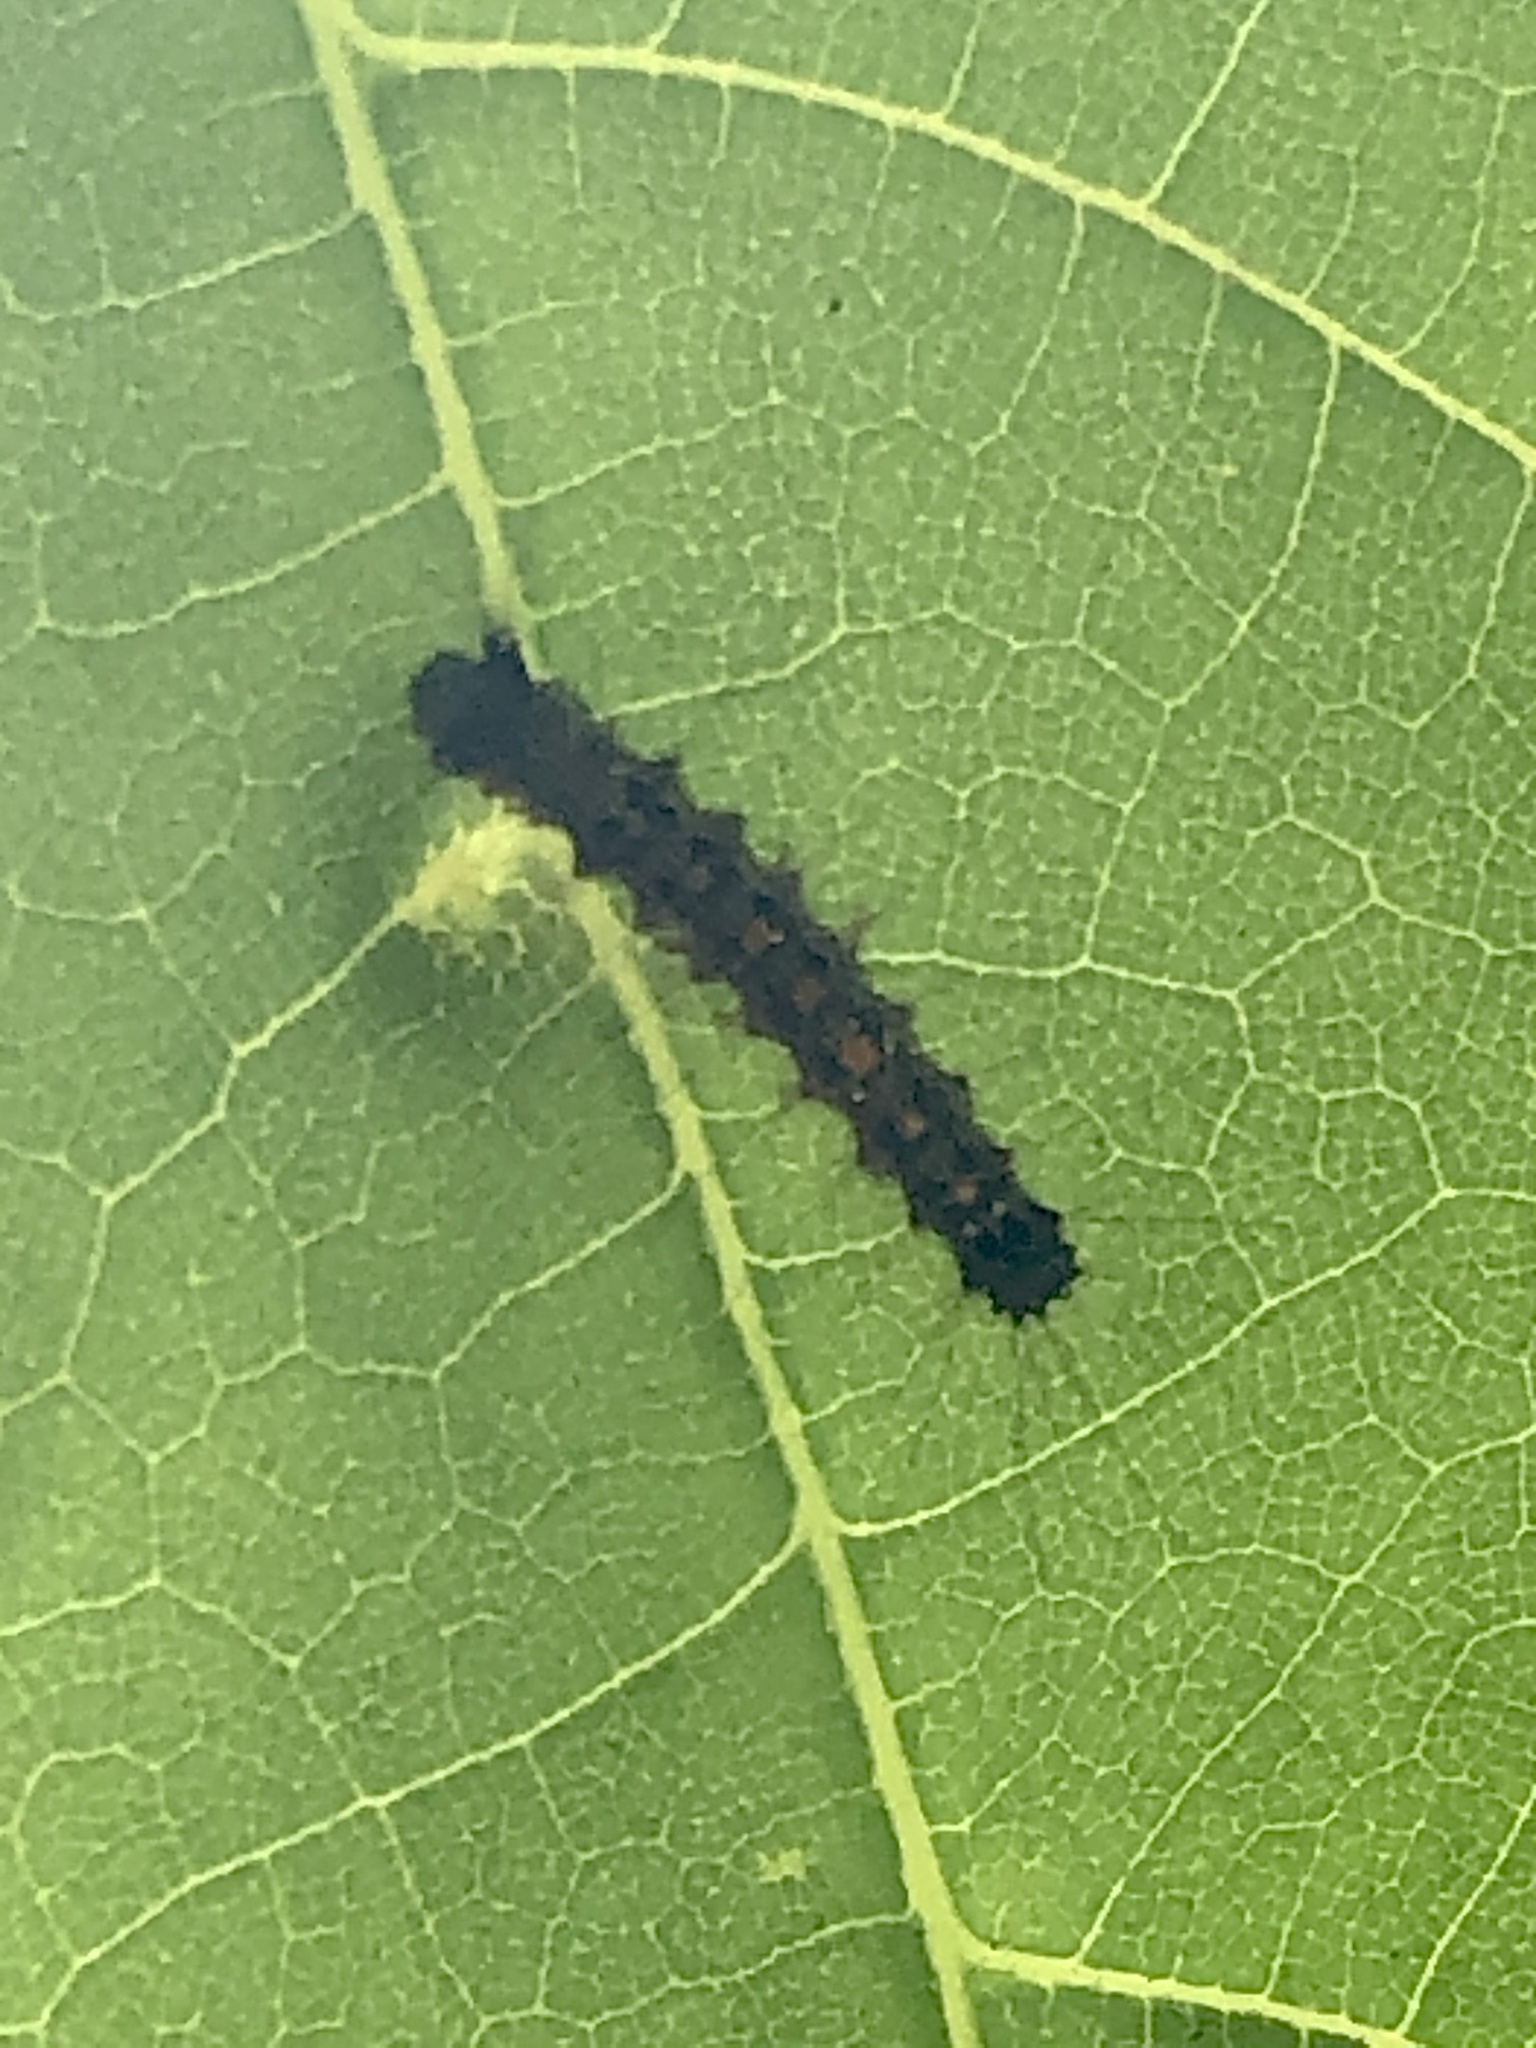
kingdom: Animalia
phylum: Arthropoda
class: Insecta
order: Lepidoptera
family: Erebidae
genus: Lymantria
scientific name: Lymantria dispar
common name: Gypsy moth
